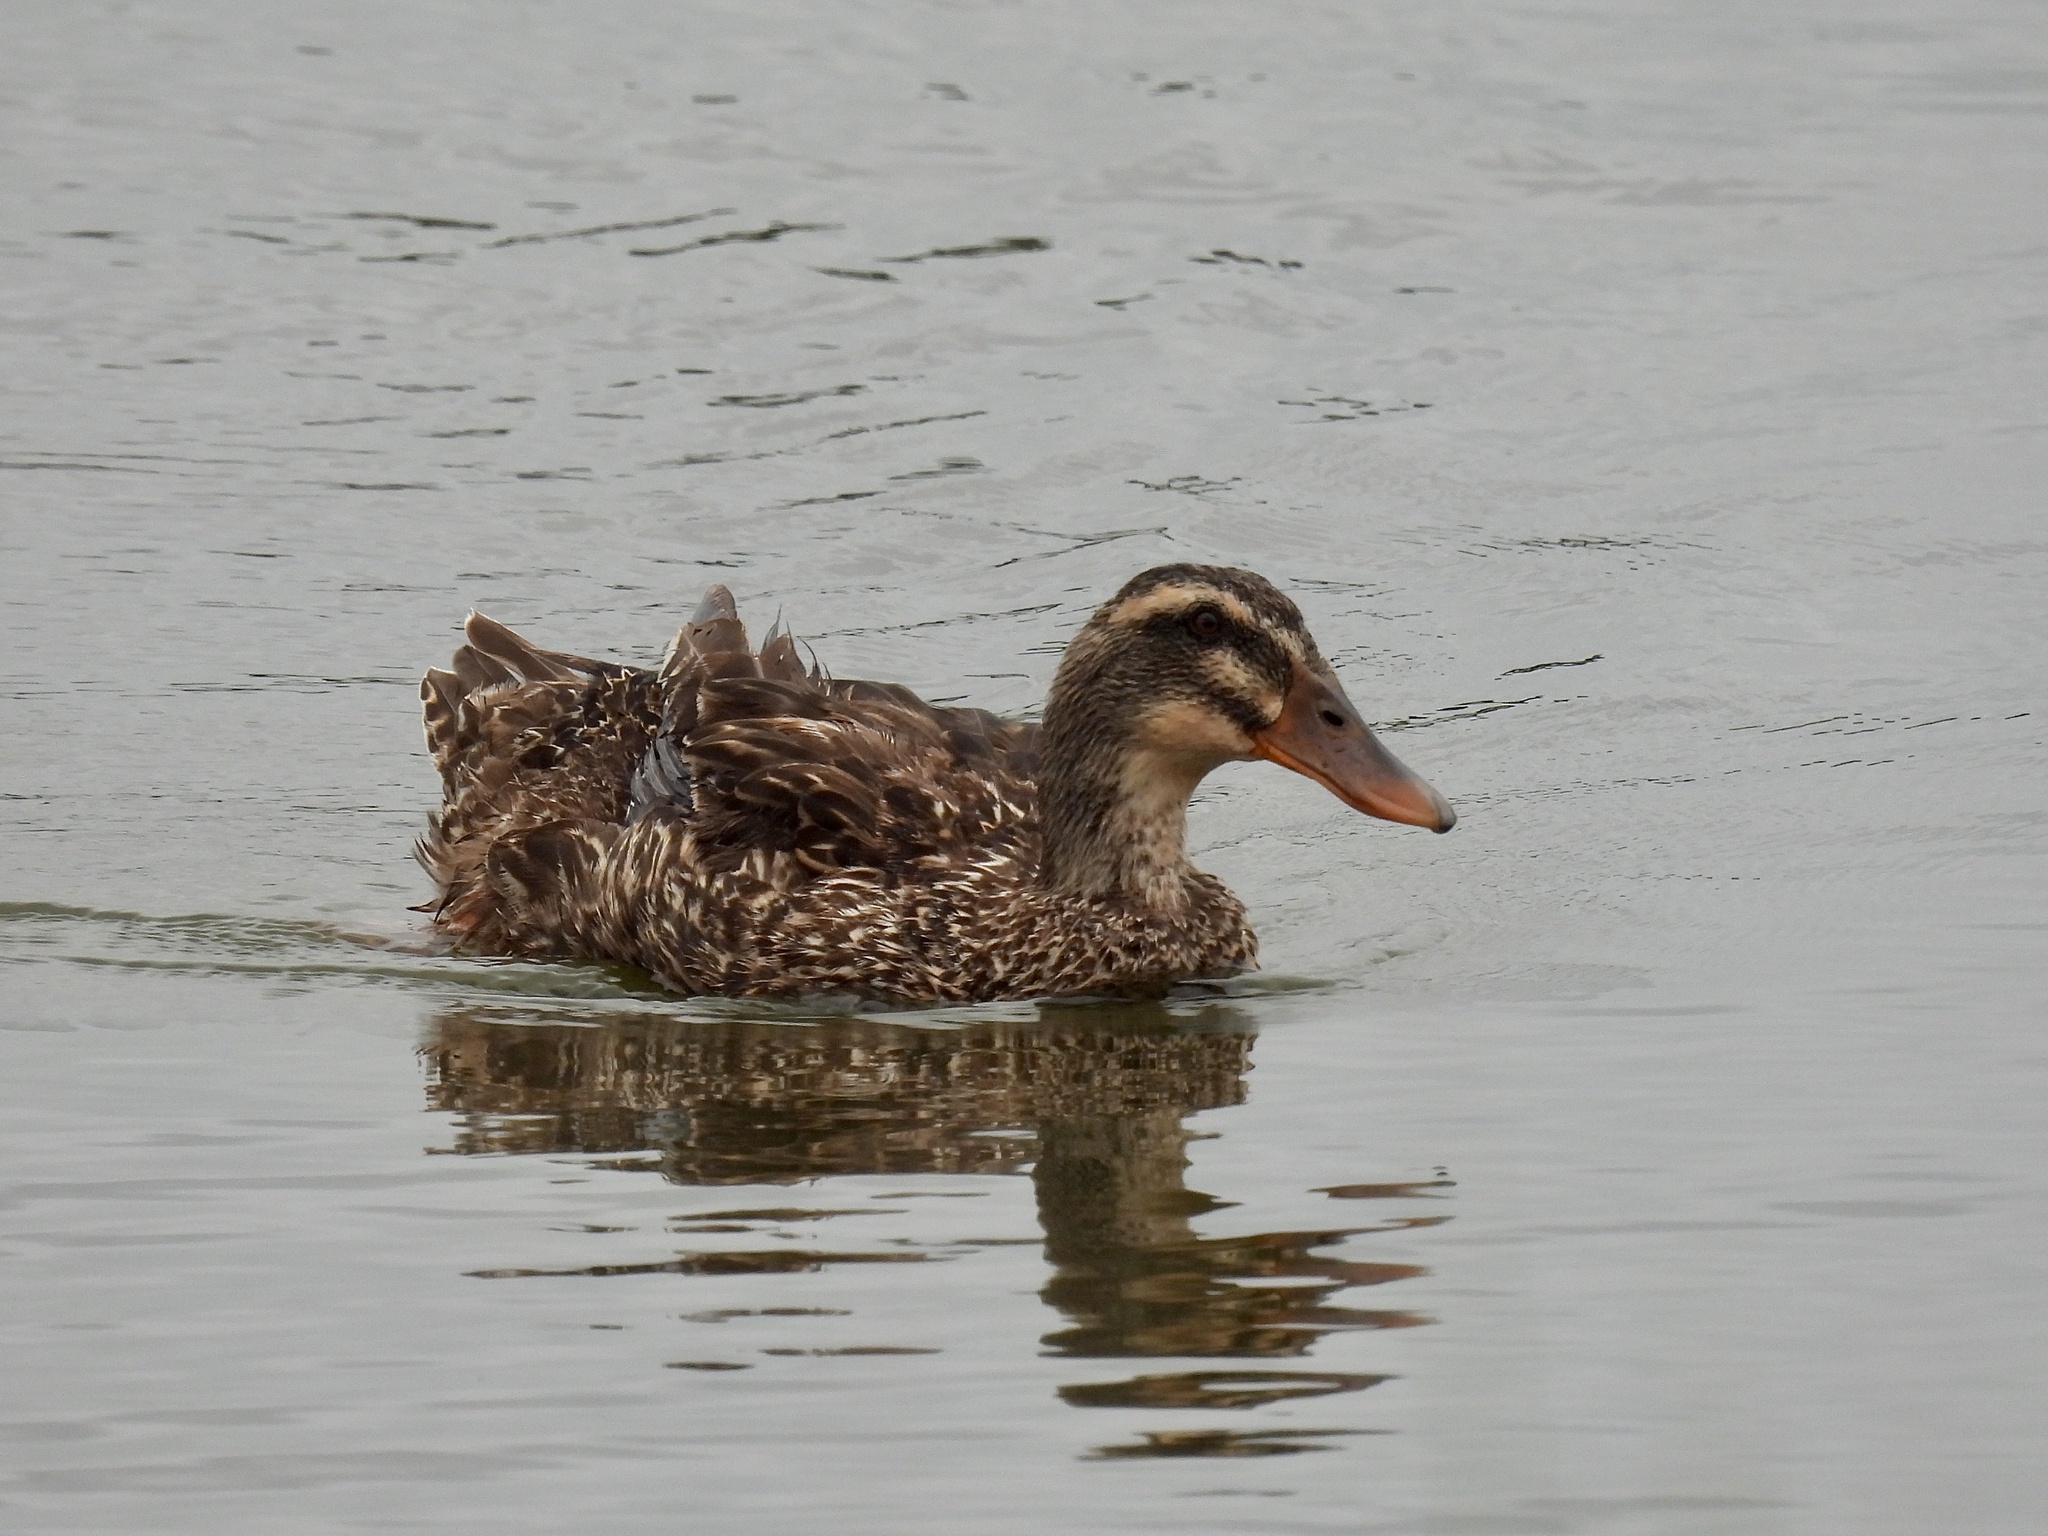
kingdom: Animalia
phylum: Chordata
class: Aves
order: Anseriformes
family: Anatidae
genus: Anas
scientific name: Anas platyrhynchos
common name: Mallard
